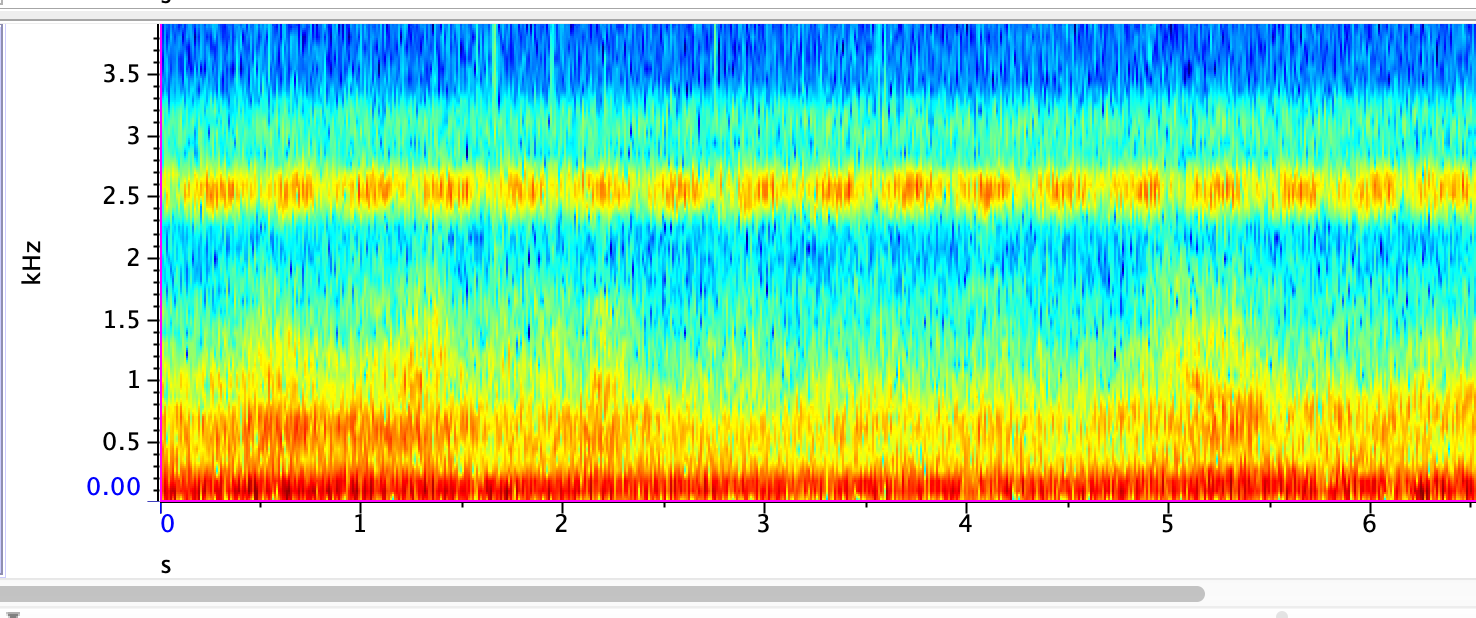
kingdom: Animalia
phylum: Arthropoda
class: Insecta
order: Orthoptera
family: Gryllidae
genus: Oecanthus
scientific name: Oecanthus fultoni
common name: Snowy tree cricket
